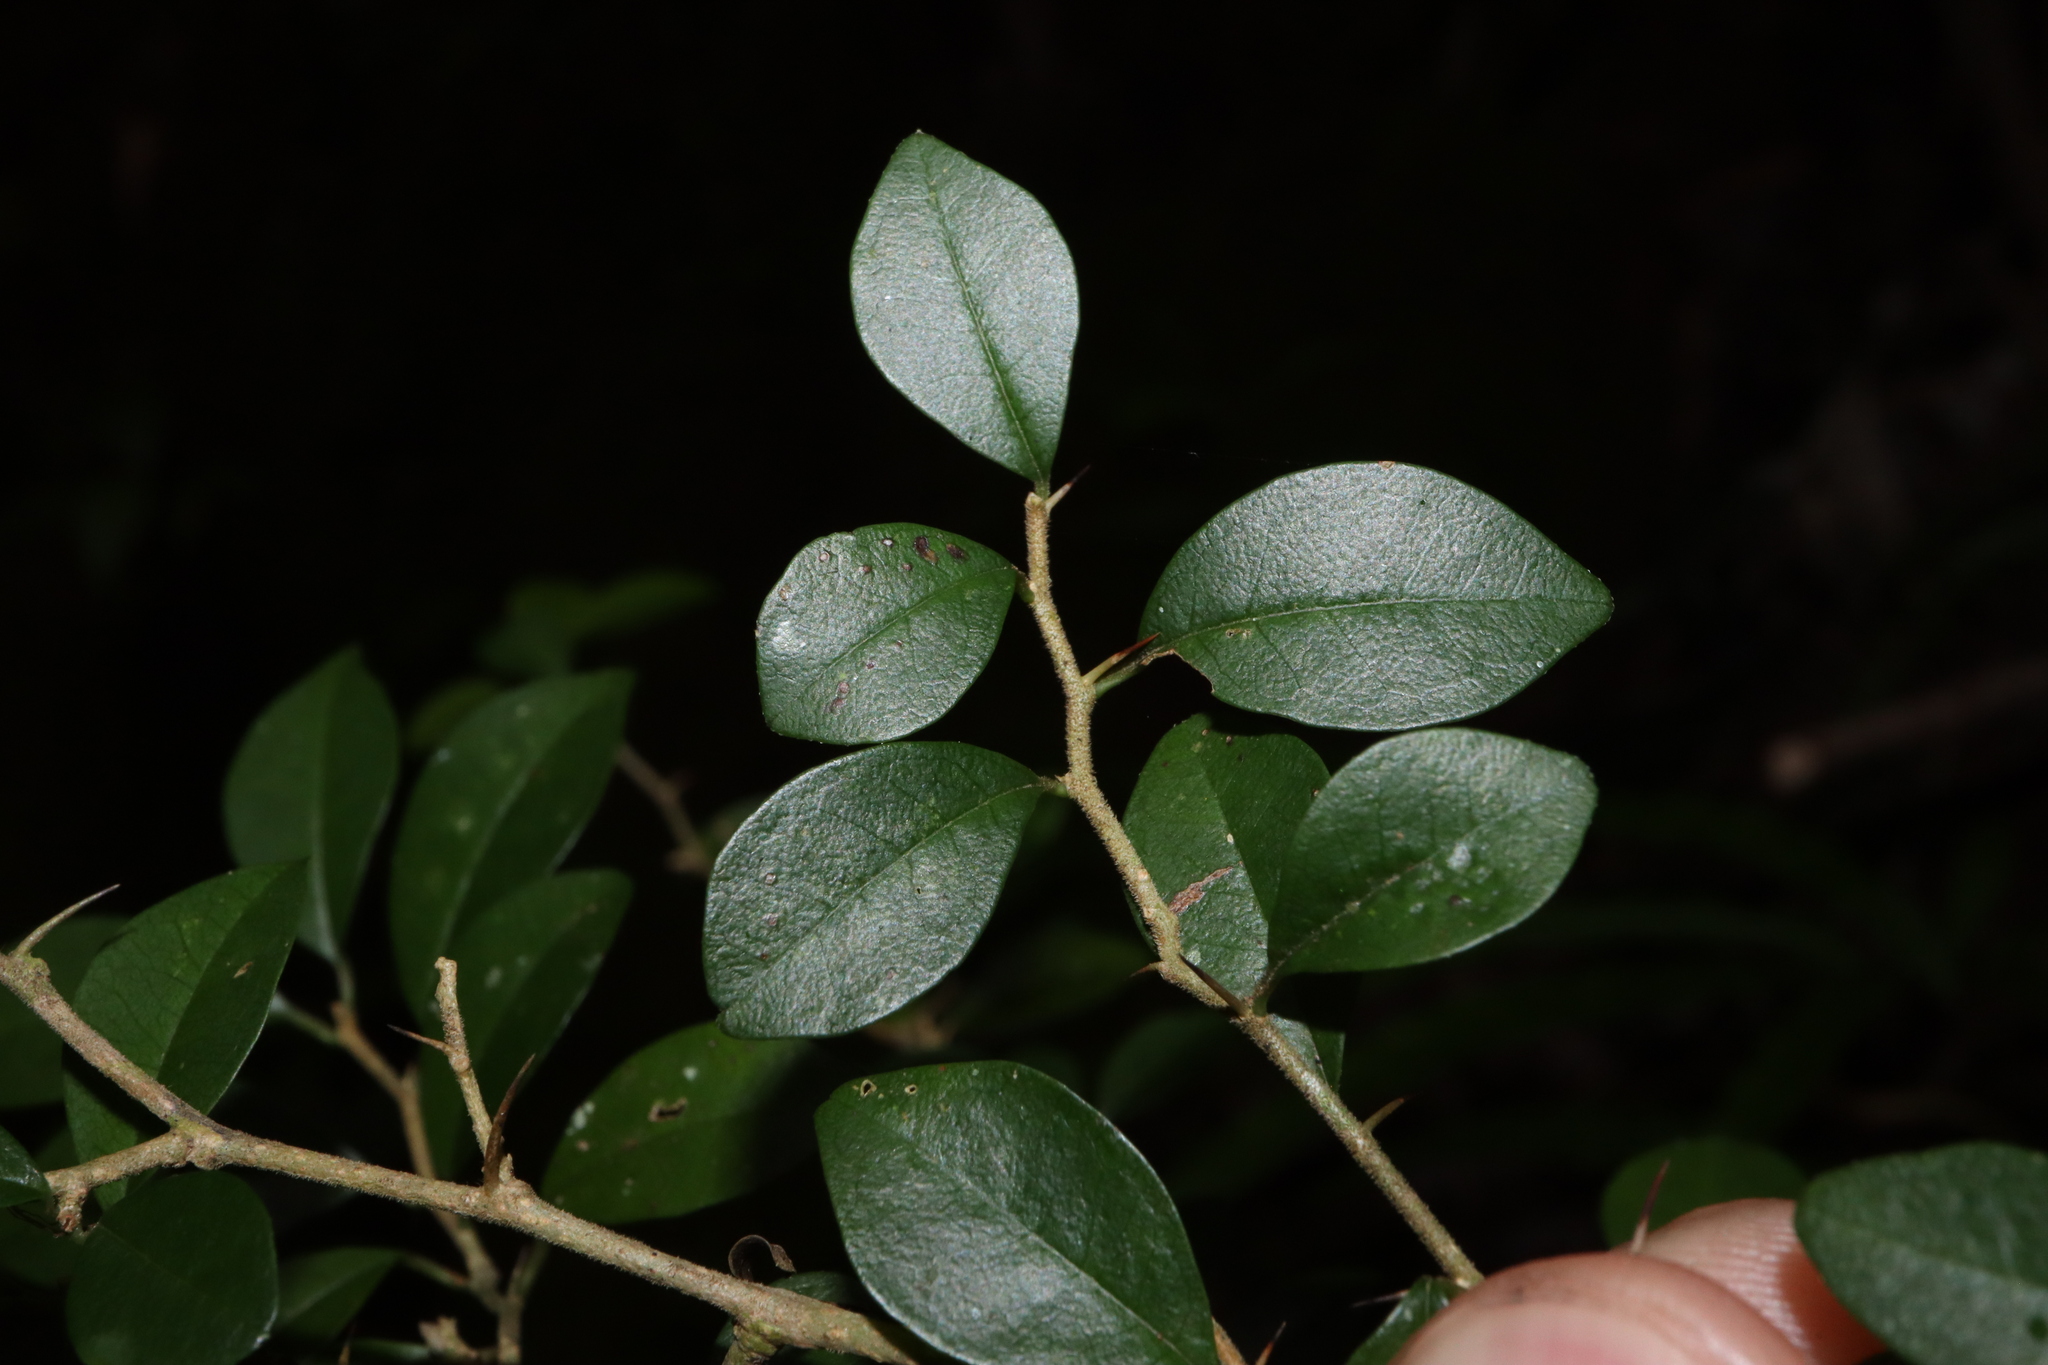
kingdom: Plantae
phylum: Tracheophyta
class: Magnoliopsida
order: Rosales
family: Moraceae
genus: Maclura
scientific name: Maclura cochinchinensis
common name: Cockspurthorn
